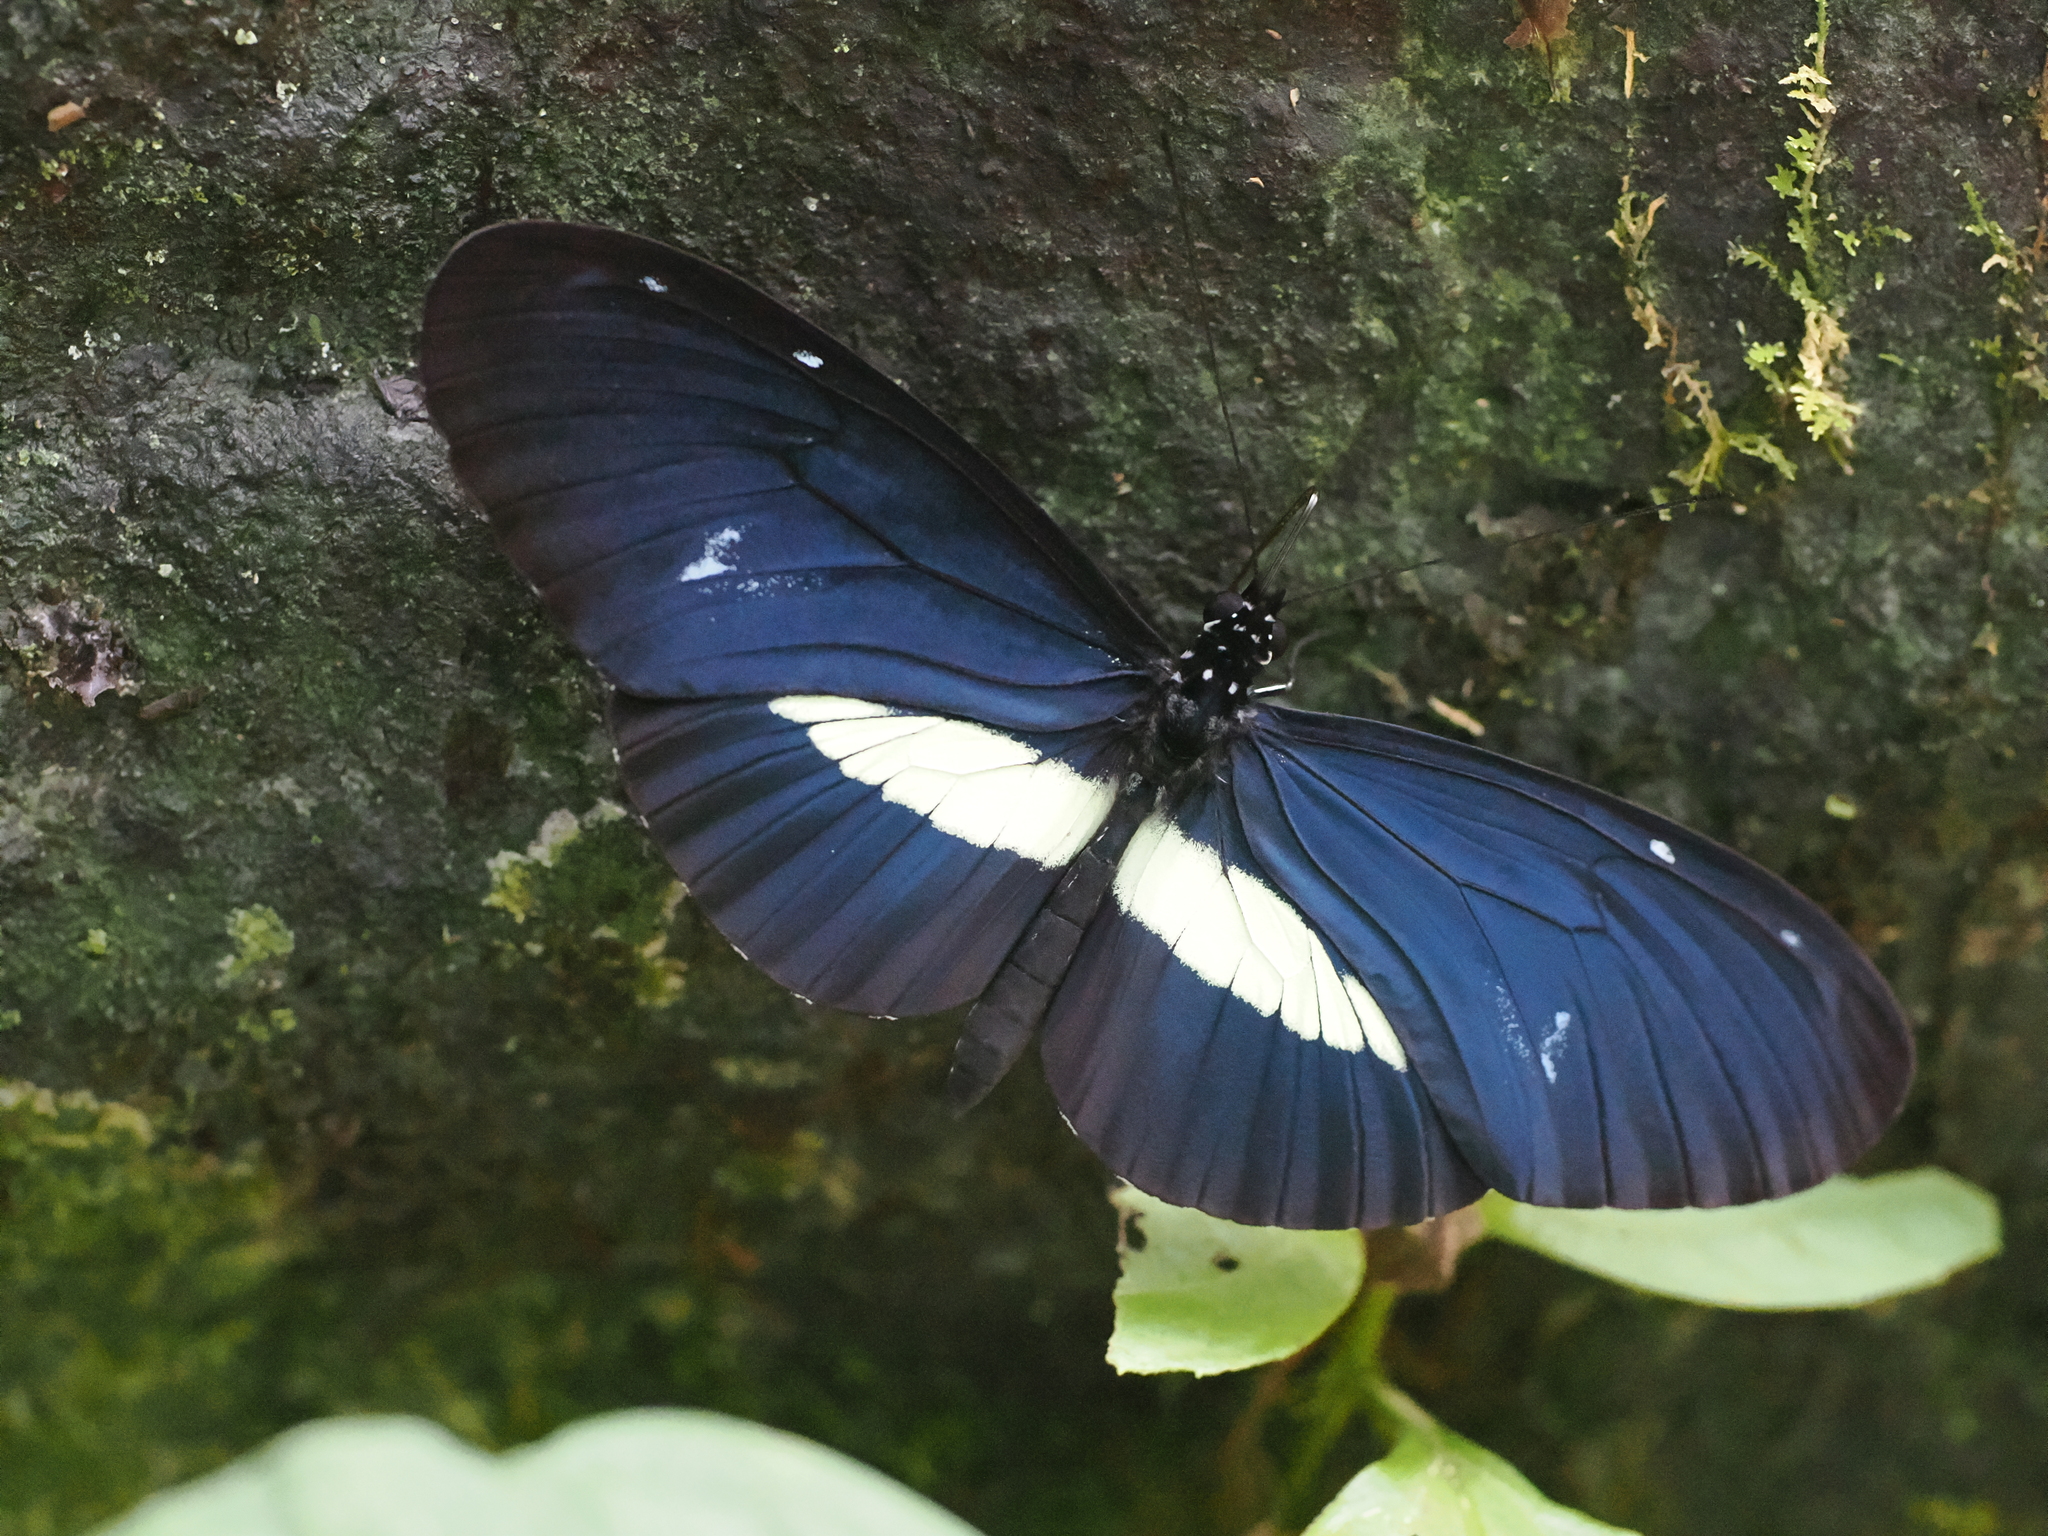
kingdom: Animalia
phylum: Arthropoda
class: Insecta
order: Lepidoptera
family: Nymphalidae
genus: Heliconius
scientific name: Heliconius cydno
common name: Cydno longwing
